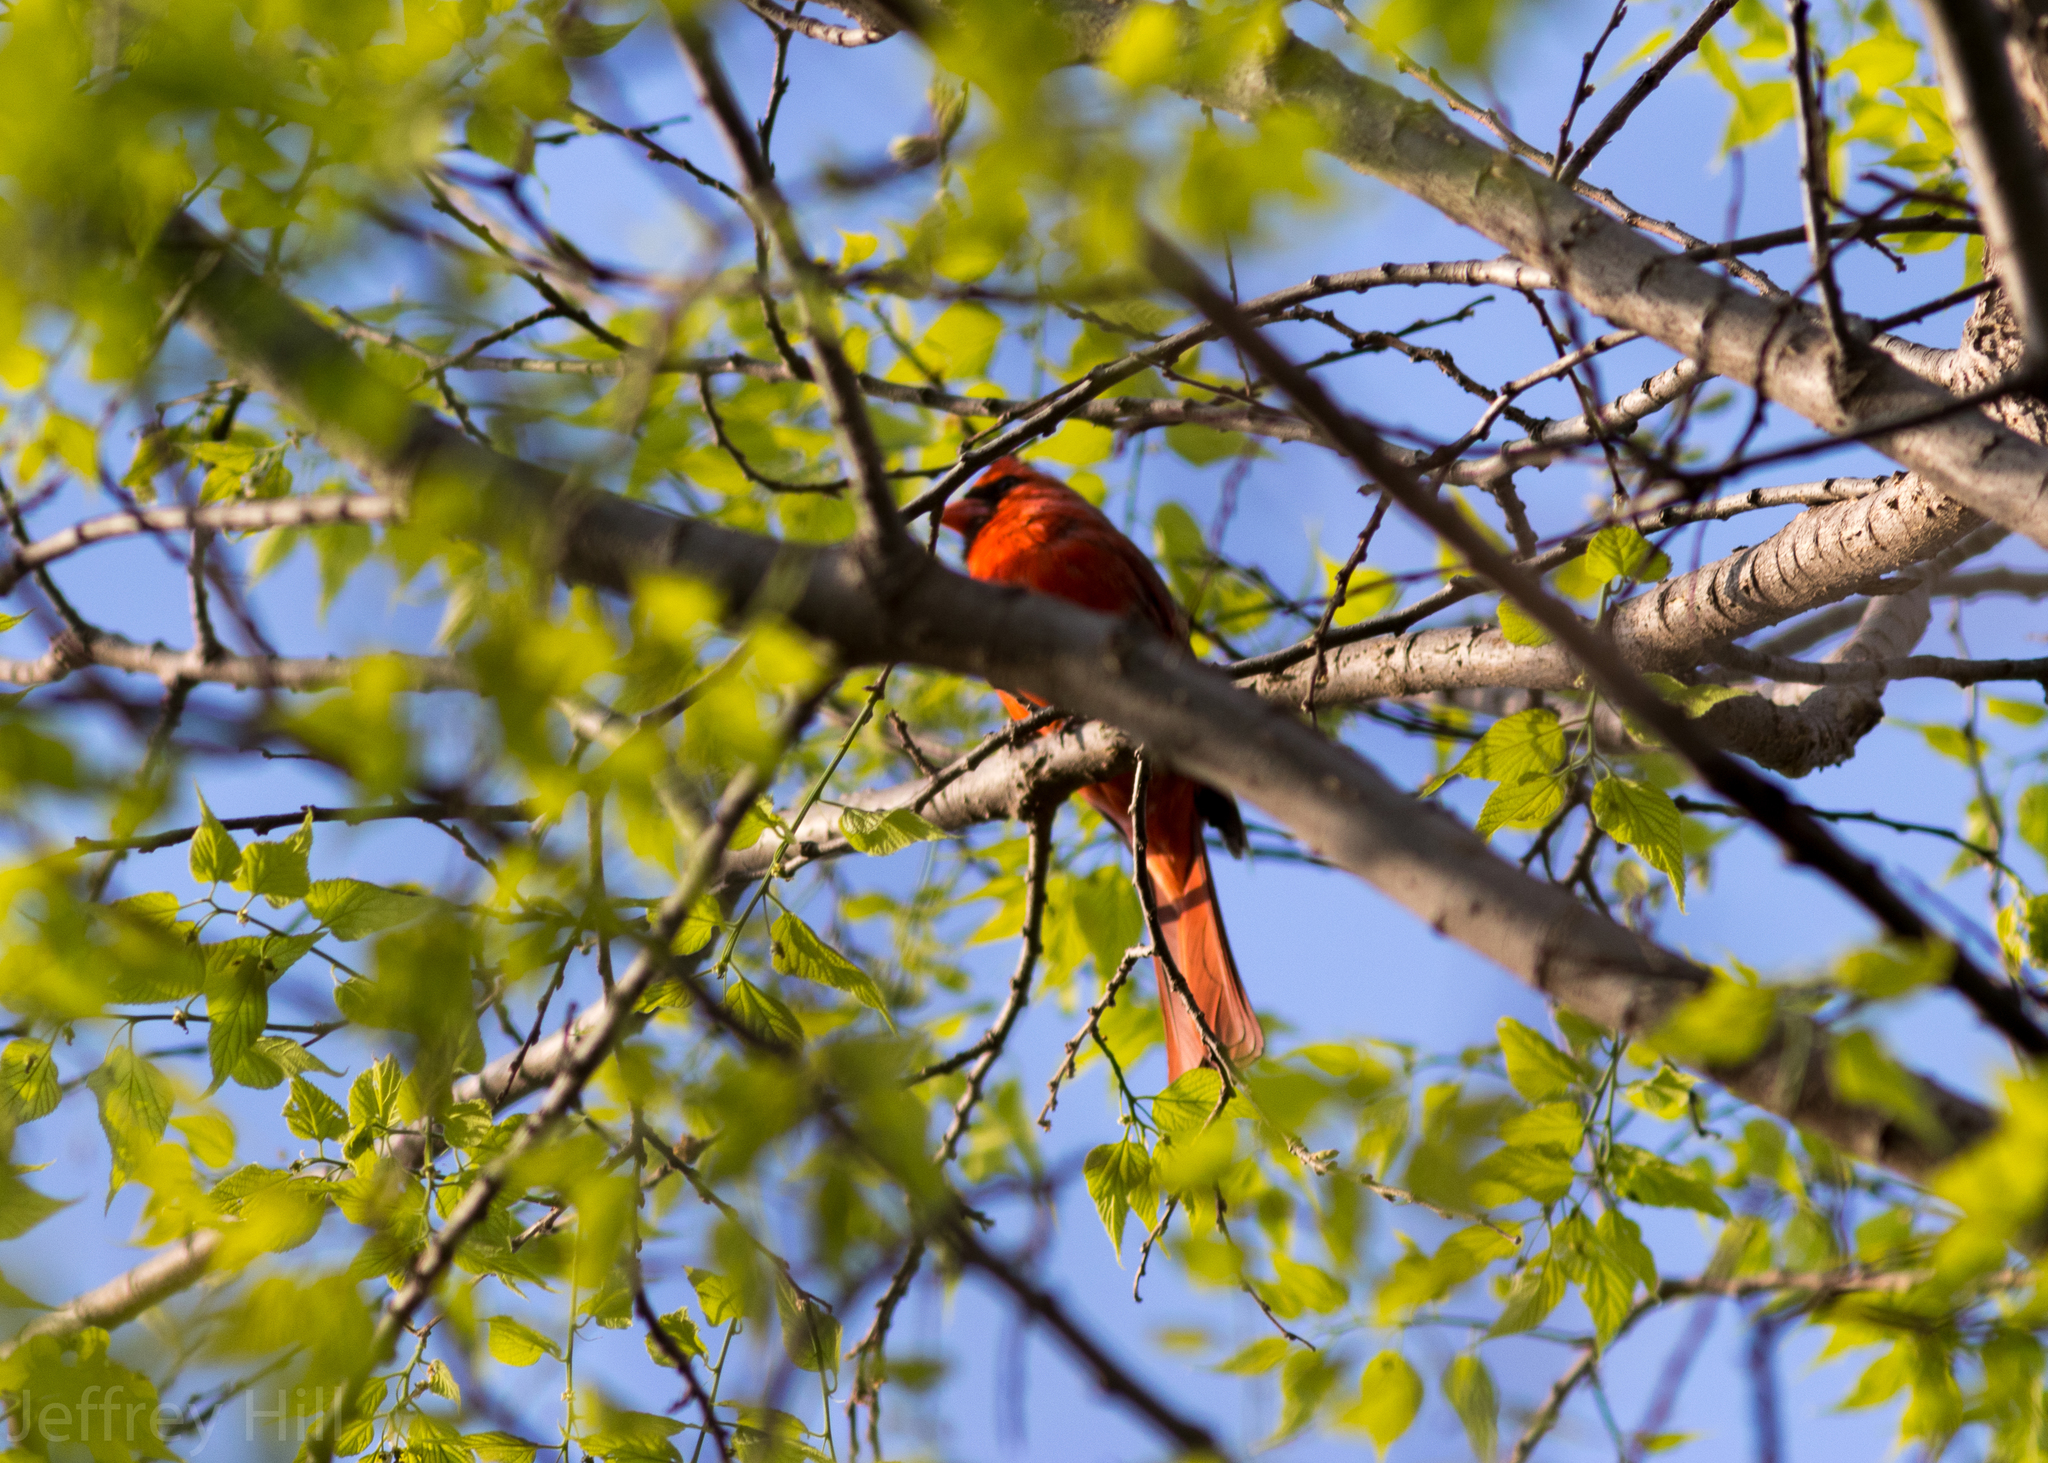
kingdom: Animalia
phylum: Chordata
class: Aves
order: Passeriformes
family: Cardinalidae
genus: Cardinalis
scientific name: Cardinalis cardinalis
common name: Northern cardinal
